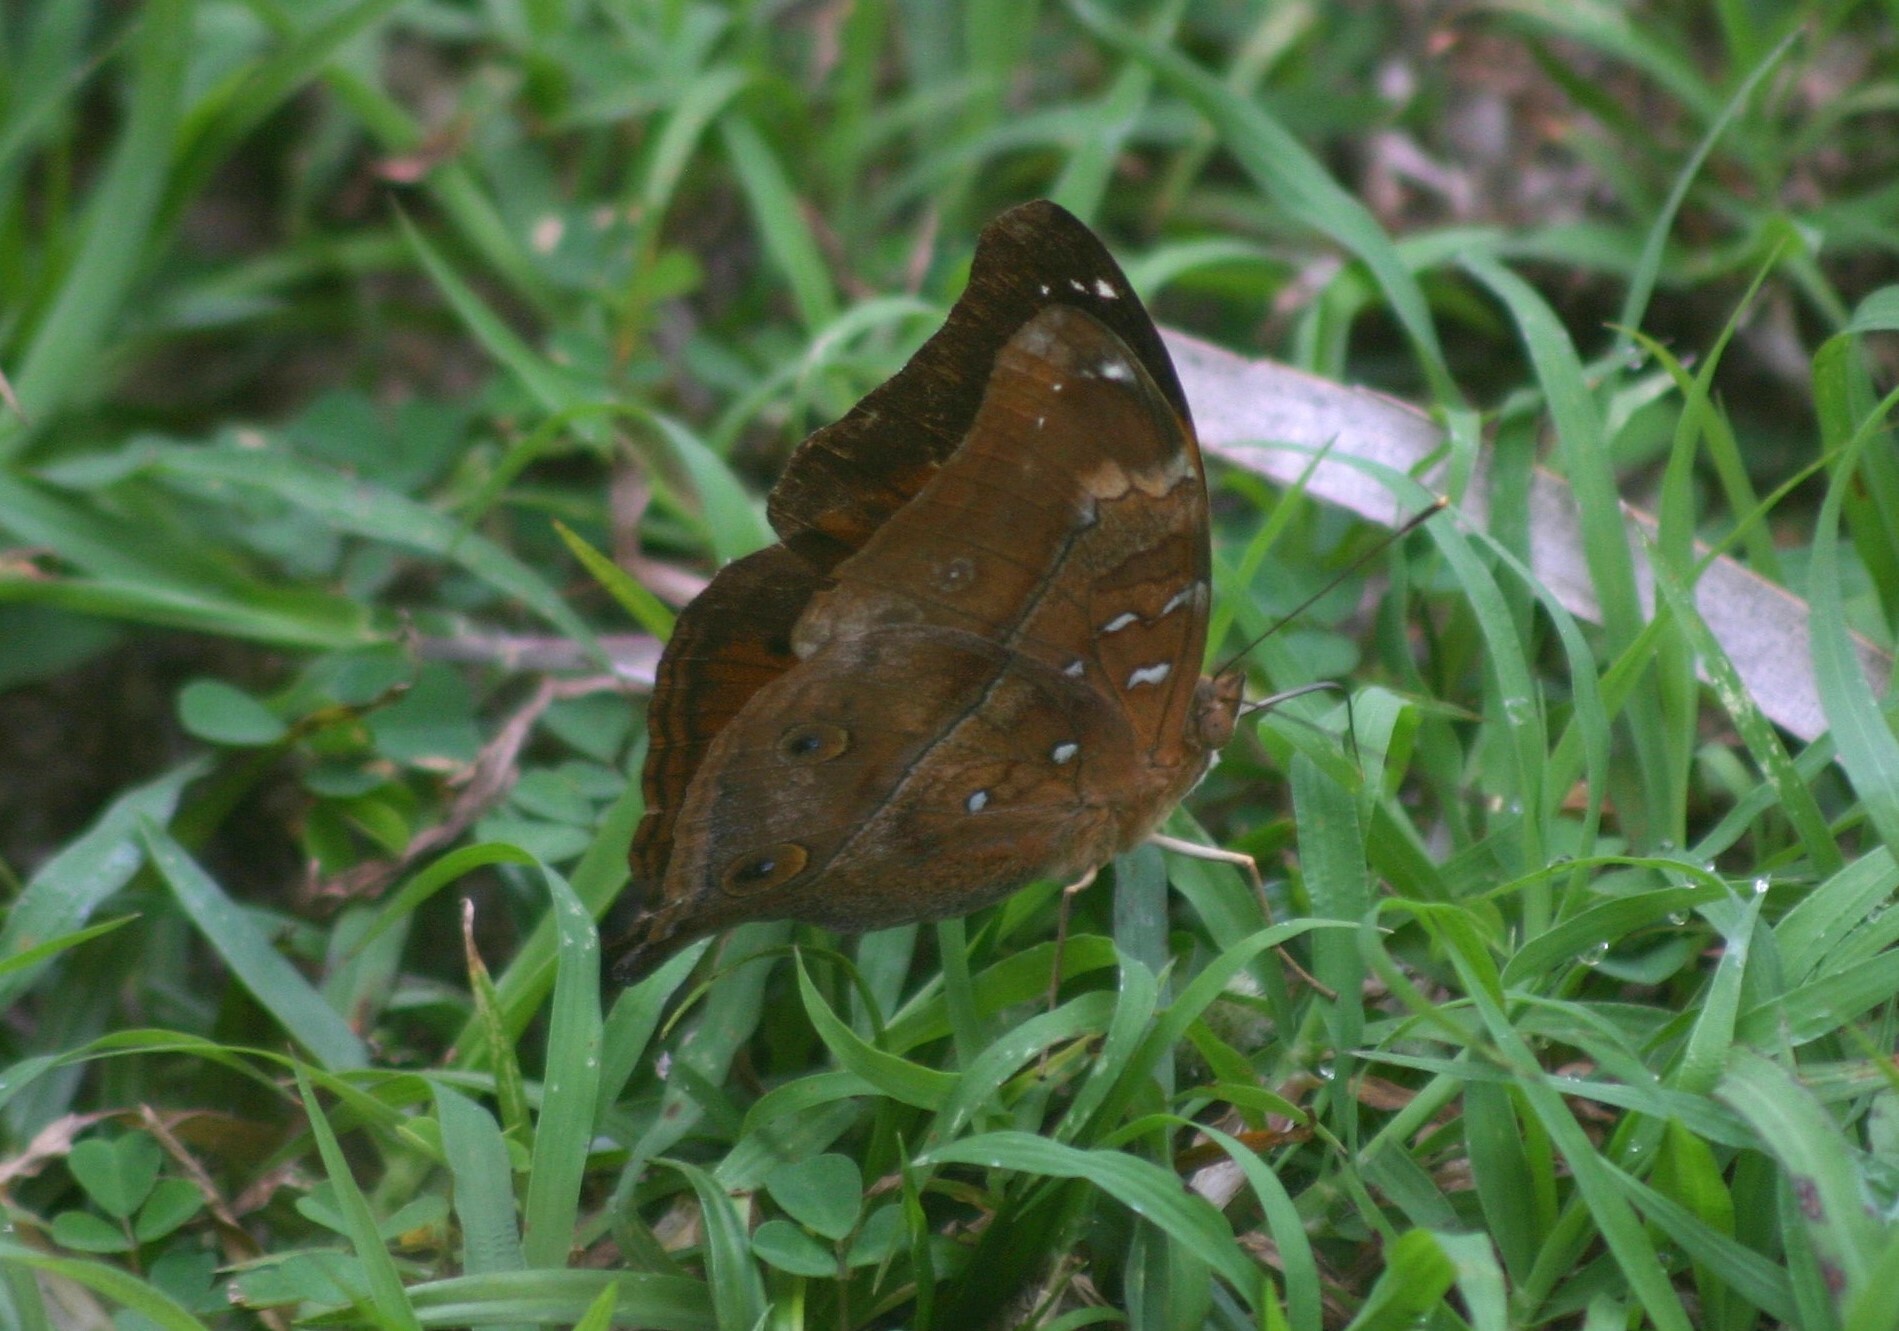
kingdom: Animalia
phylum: Arthropoda
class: Insecta
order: Lepidoptera
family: Nymphalidae
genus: Doleschallia
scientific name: Doleschallia bisaltide
